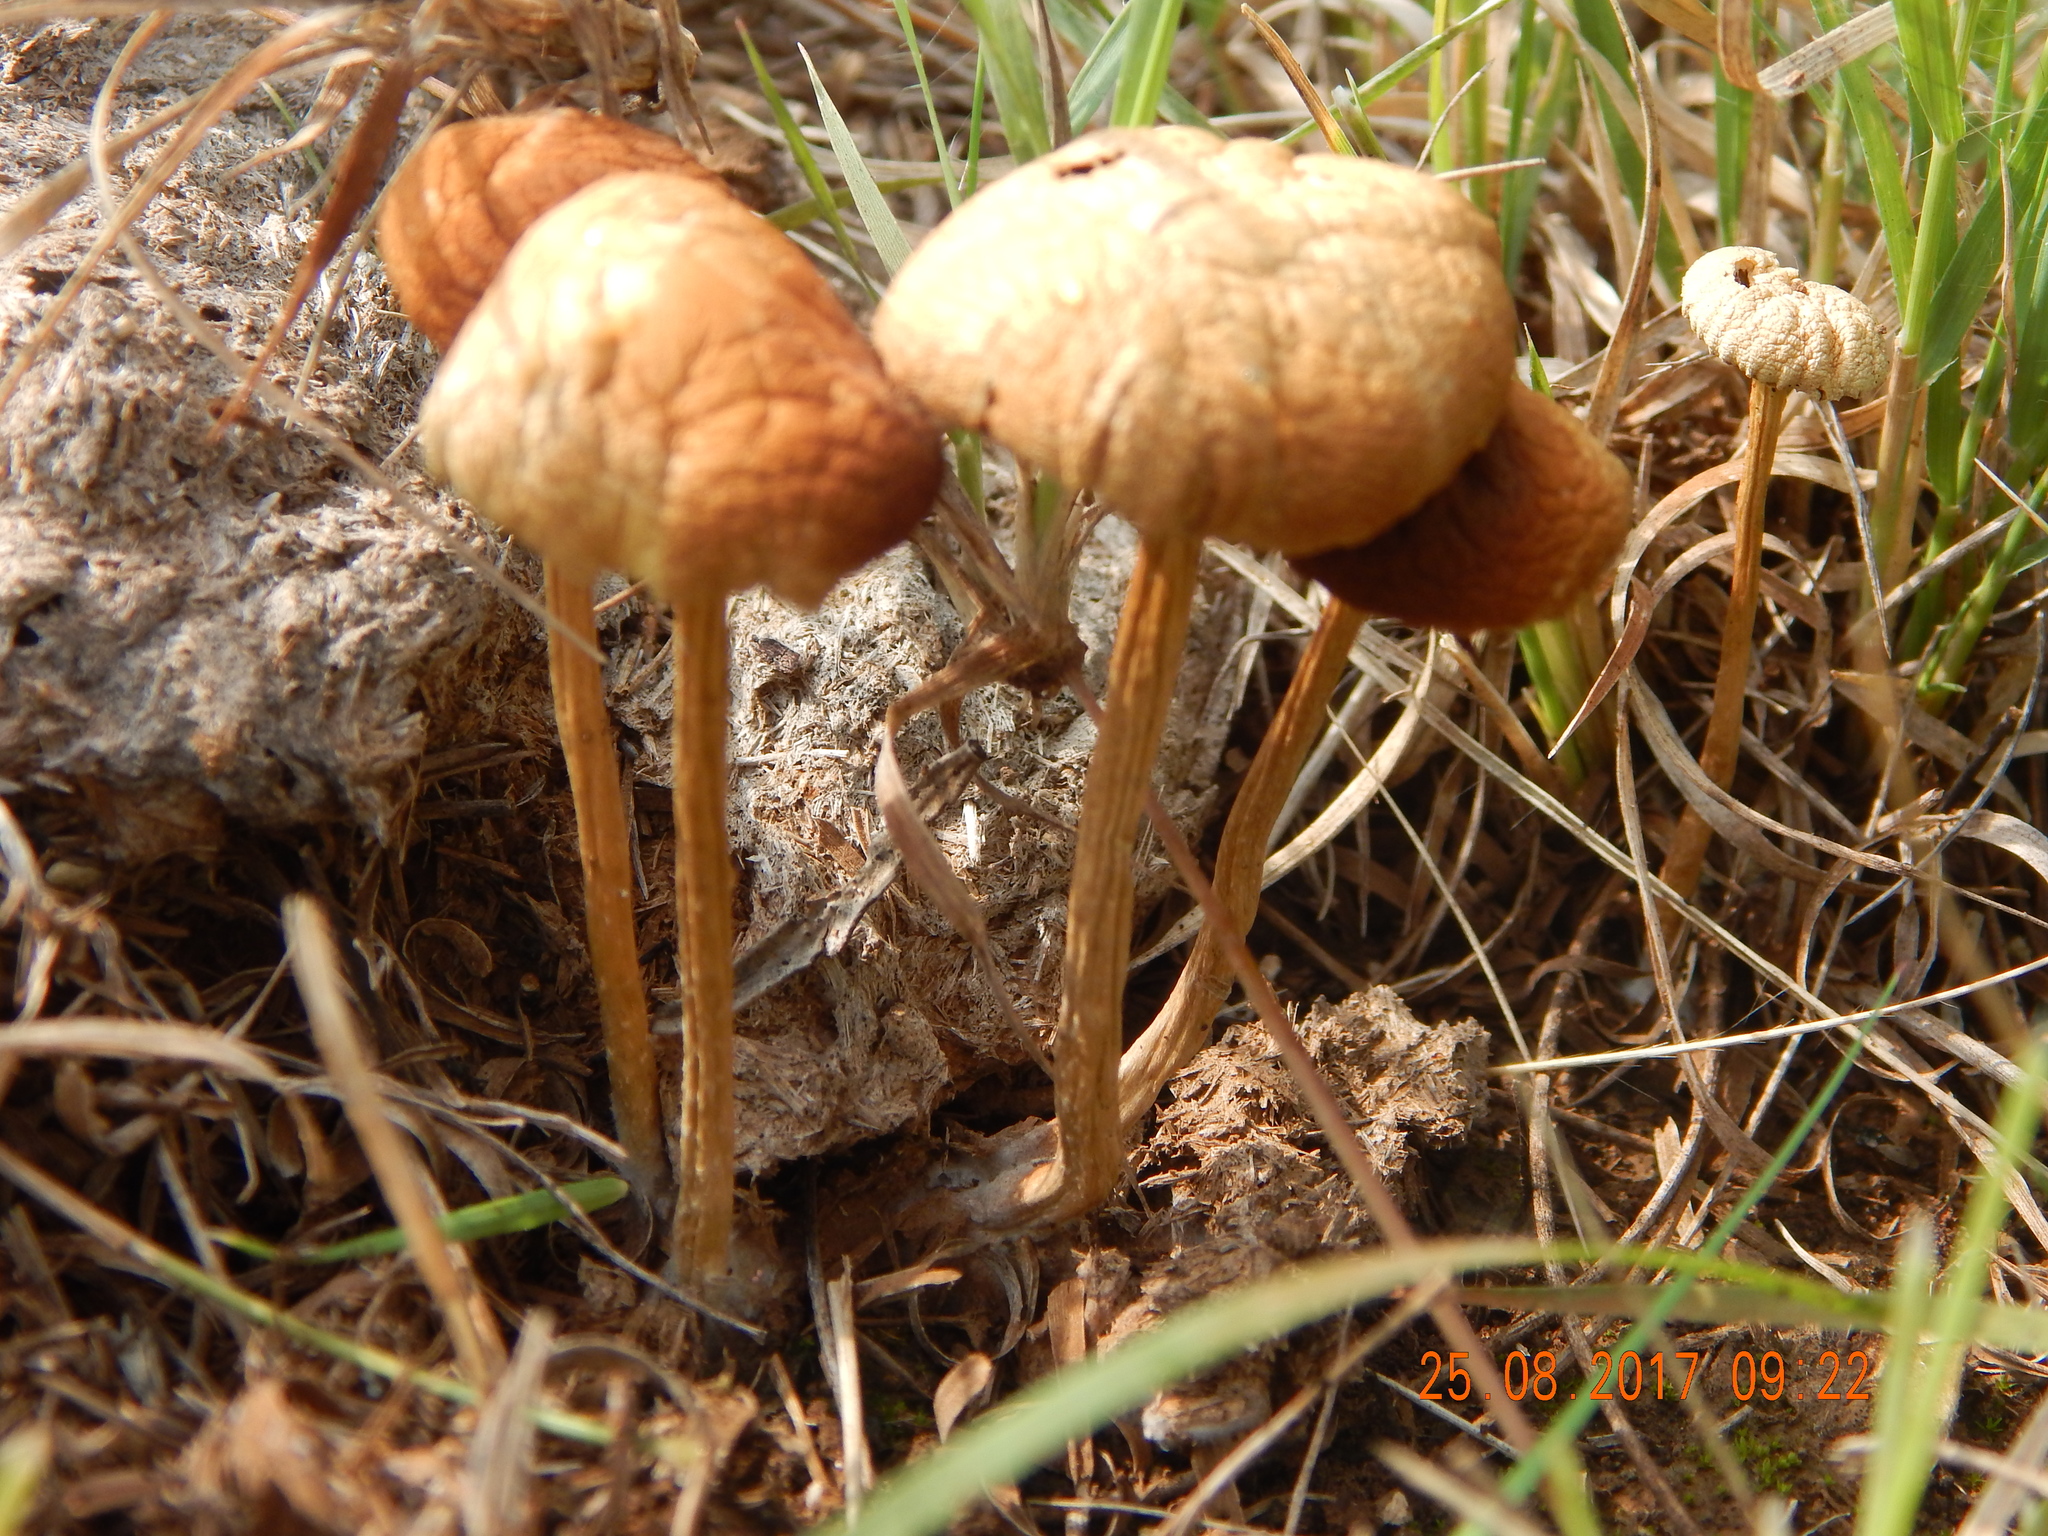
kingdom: Fungi
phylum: Basidiomycota
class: Agaricomycetes
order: Agaricales
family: Strophariaceae
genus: Agrocybe
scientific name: Agrocybe pediades
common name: Common fieldcap
